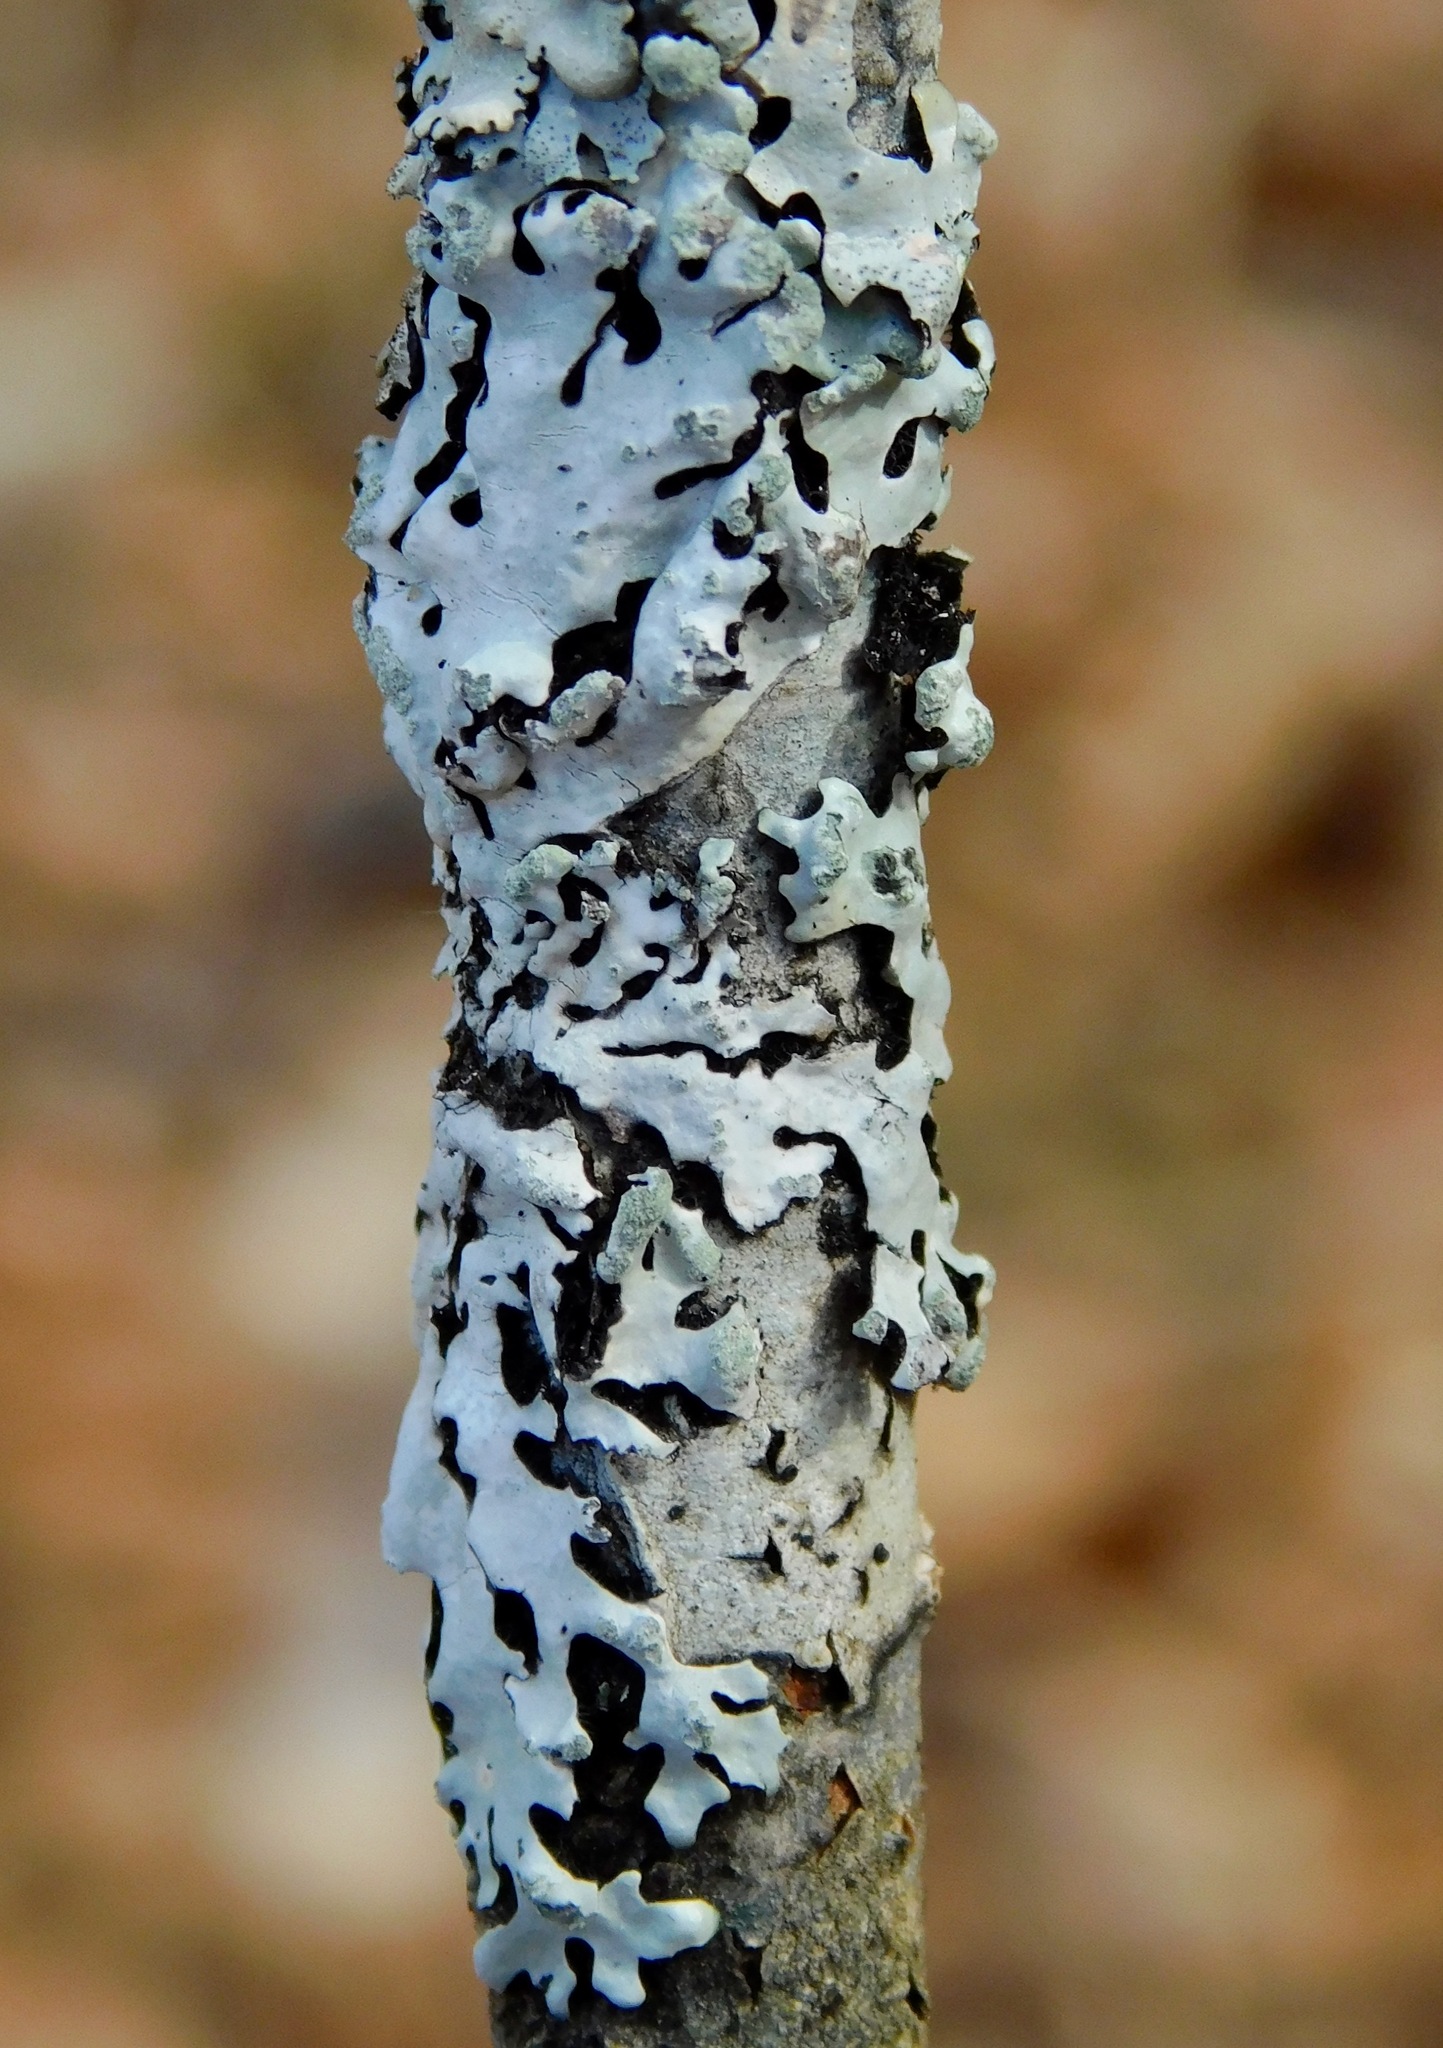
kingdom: Fungi
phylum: Ascomycota
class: Lecanoromycetes
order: Lecanorales
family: Parmeliaceae
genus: Myelochroa
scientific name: Myelochroa metarevoluta
